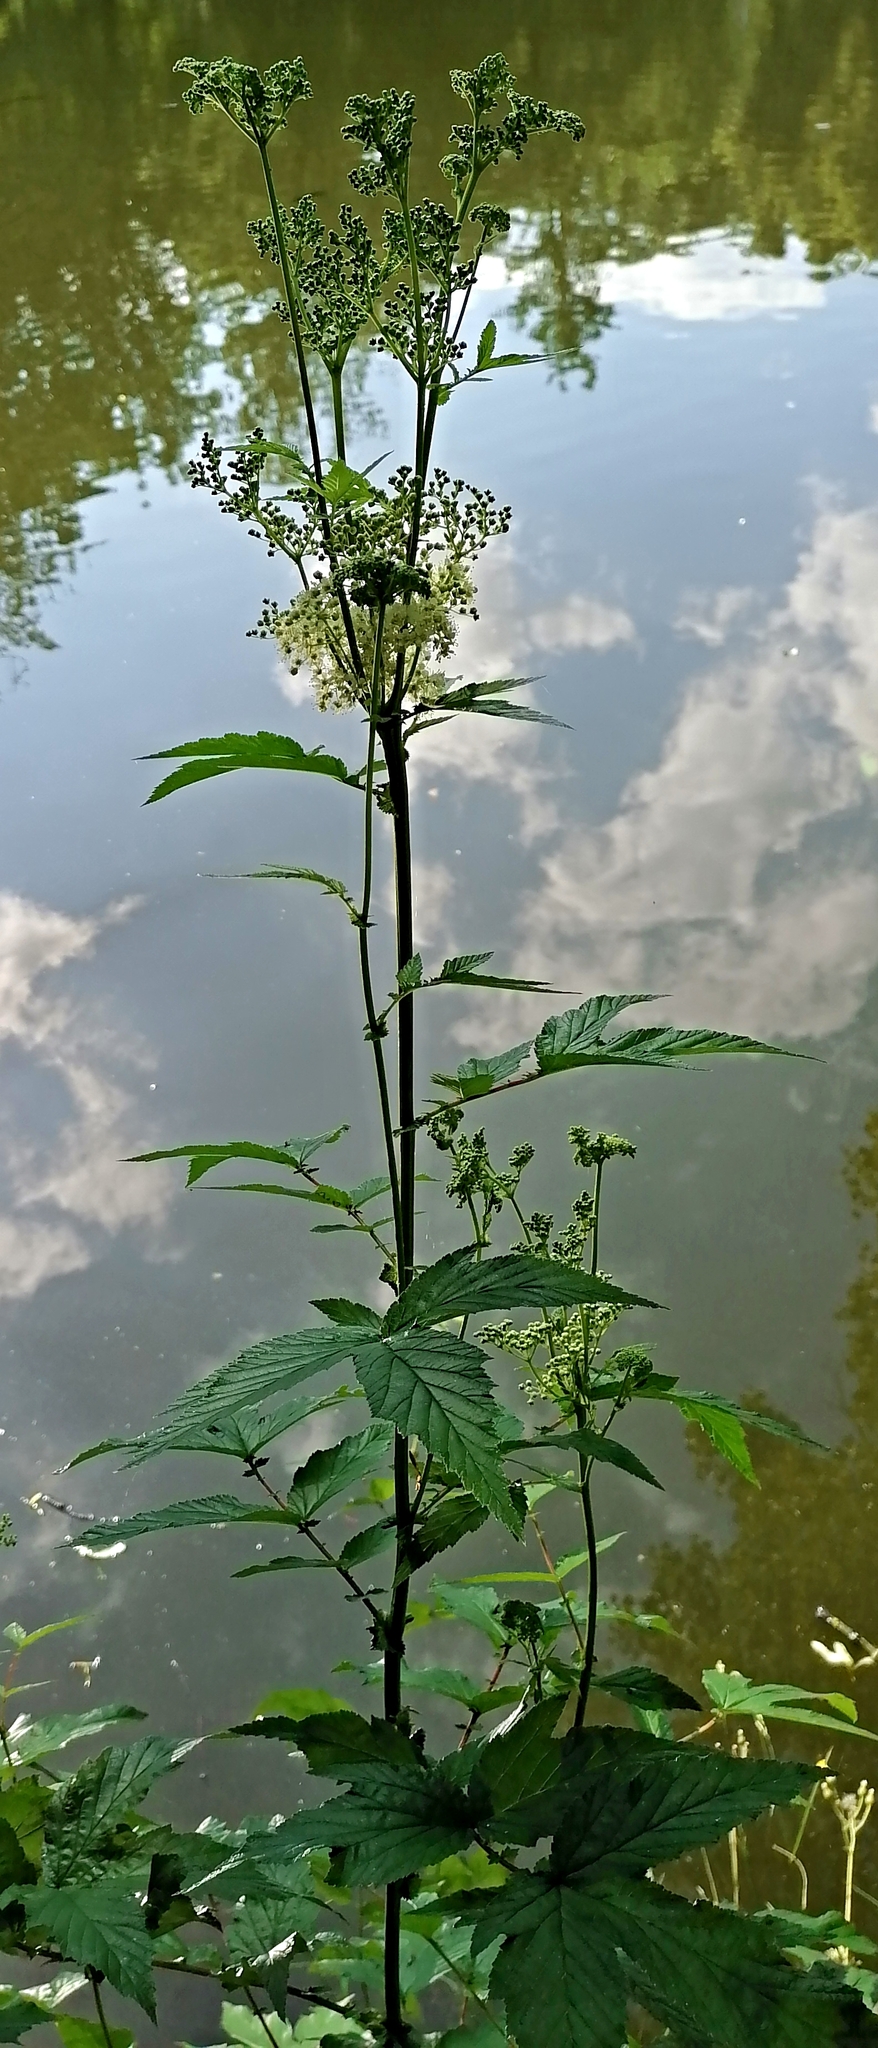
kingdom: Plantae
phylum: Tracheophyta
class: Magnoliopsida
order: Rosales
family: Rosaceae
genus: Filipendula
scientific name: Filipendula ulmaria
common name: Meadowsweet
